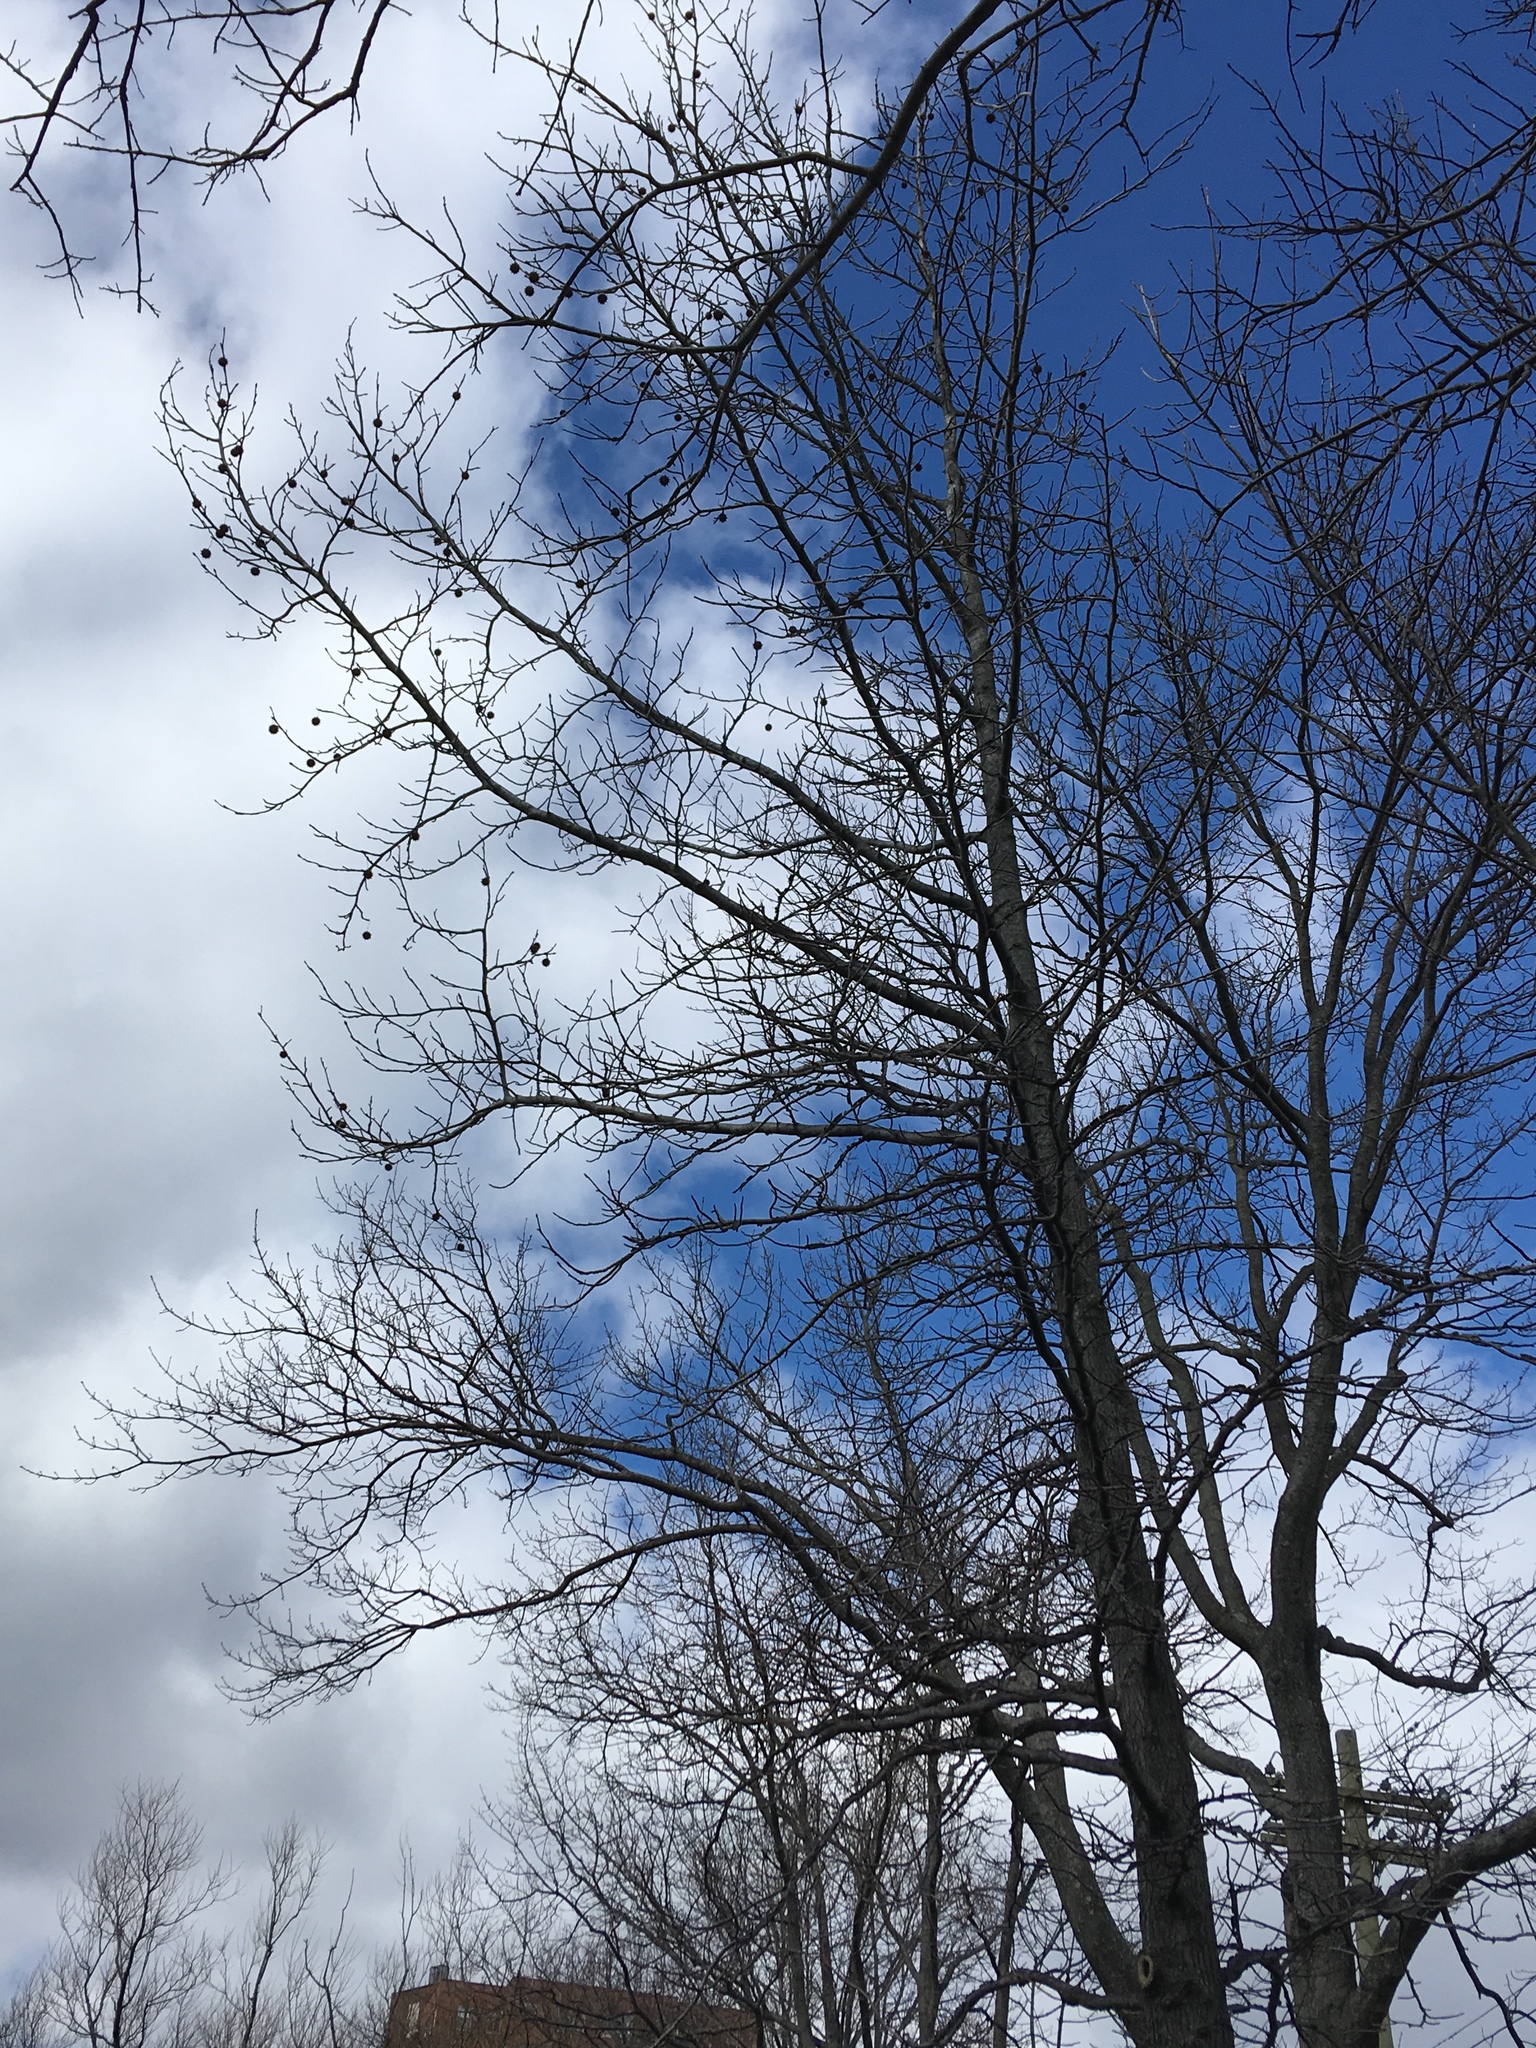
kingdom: Plantae
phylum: Tracheophyta
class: Magnoliopsida
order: Saxifragales
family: Altingiaceae
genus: Liquidambar
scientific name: Liquidambar styraciflua
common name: Sweet gum
